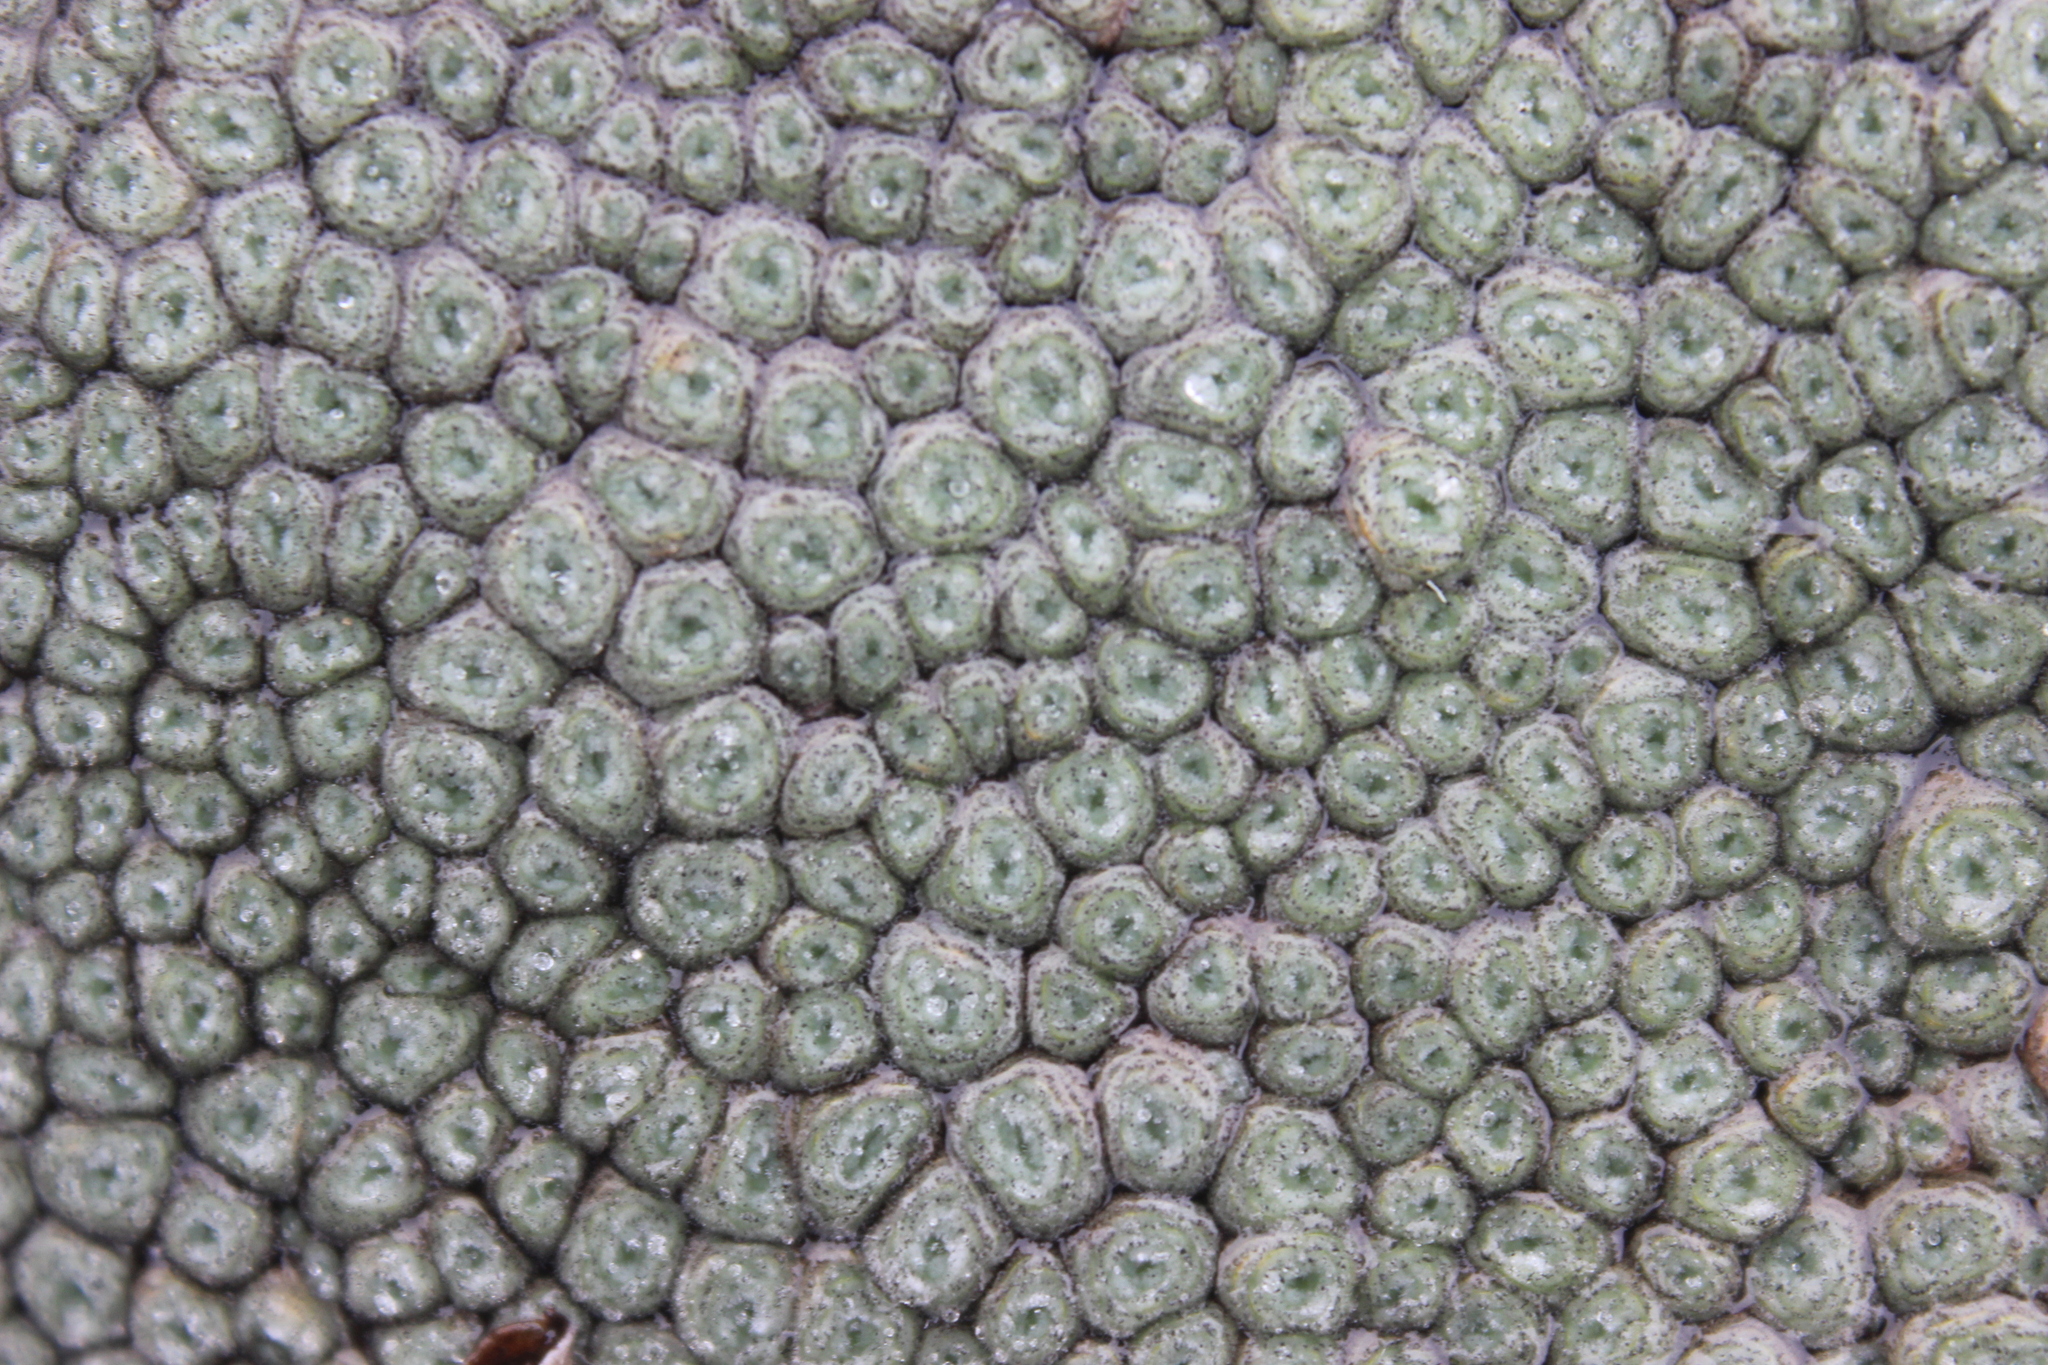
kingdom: Plantae
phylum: Tracheophyta
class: Magnoliopsida
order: Asterales
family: Asteraceae
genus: Raoulia
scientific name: Raoulia rubra
